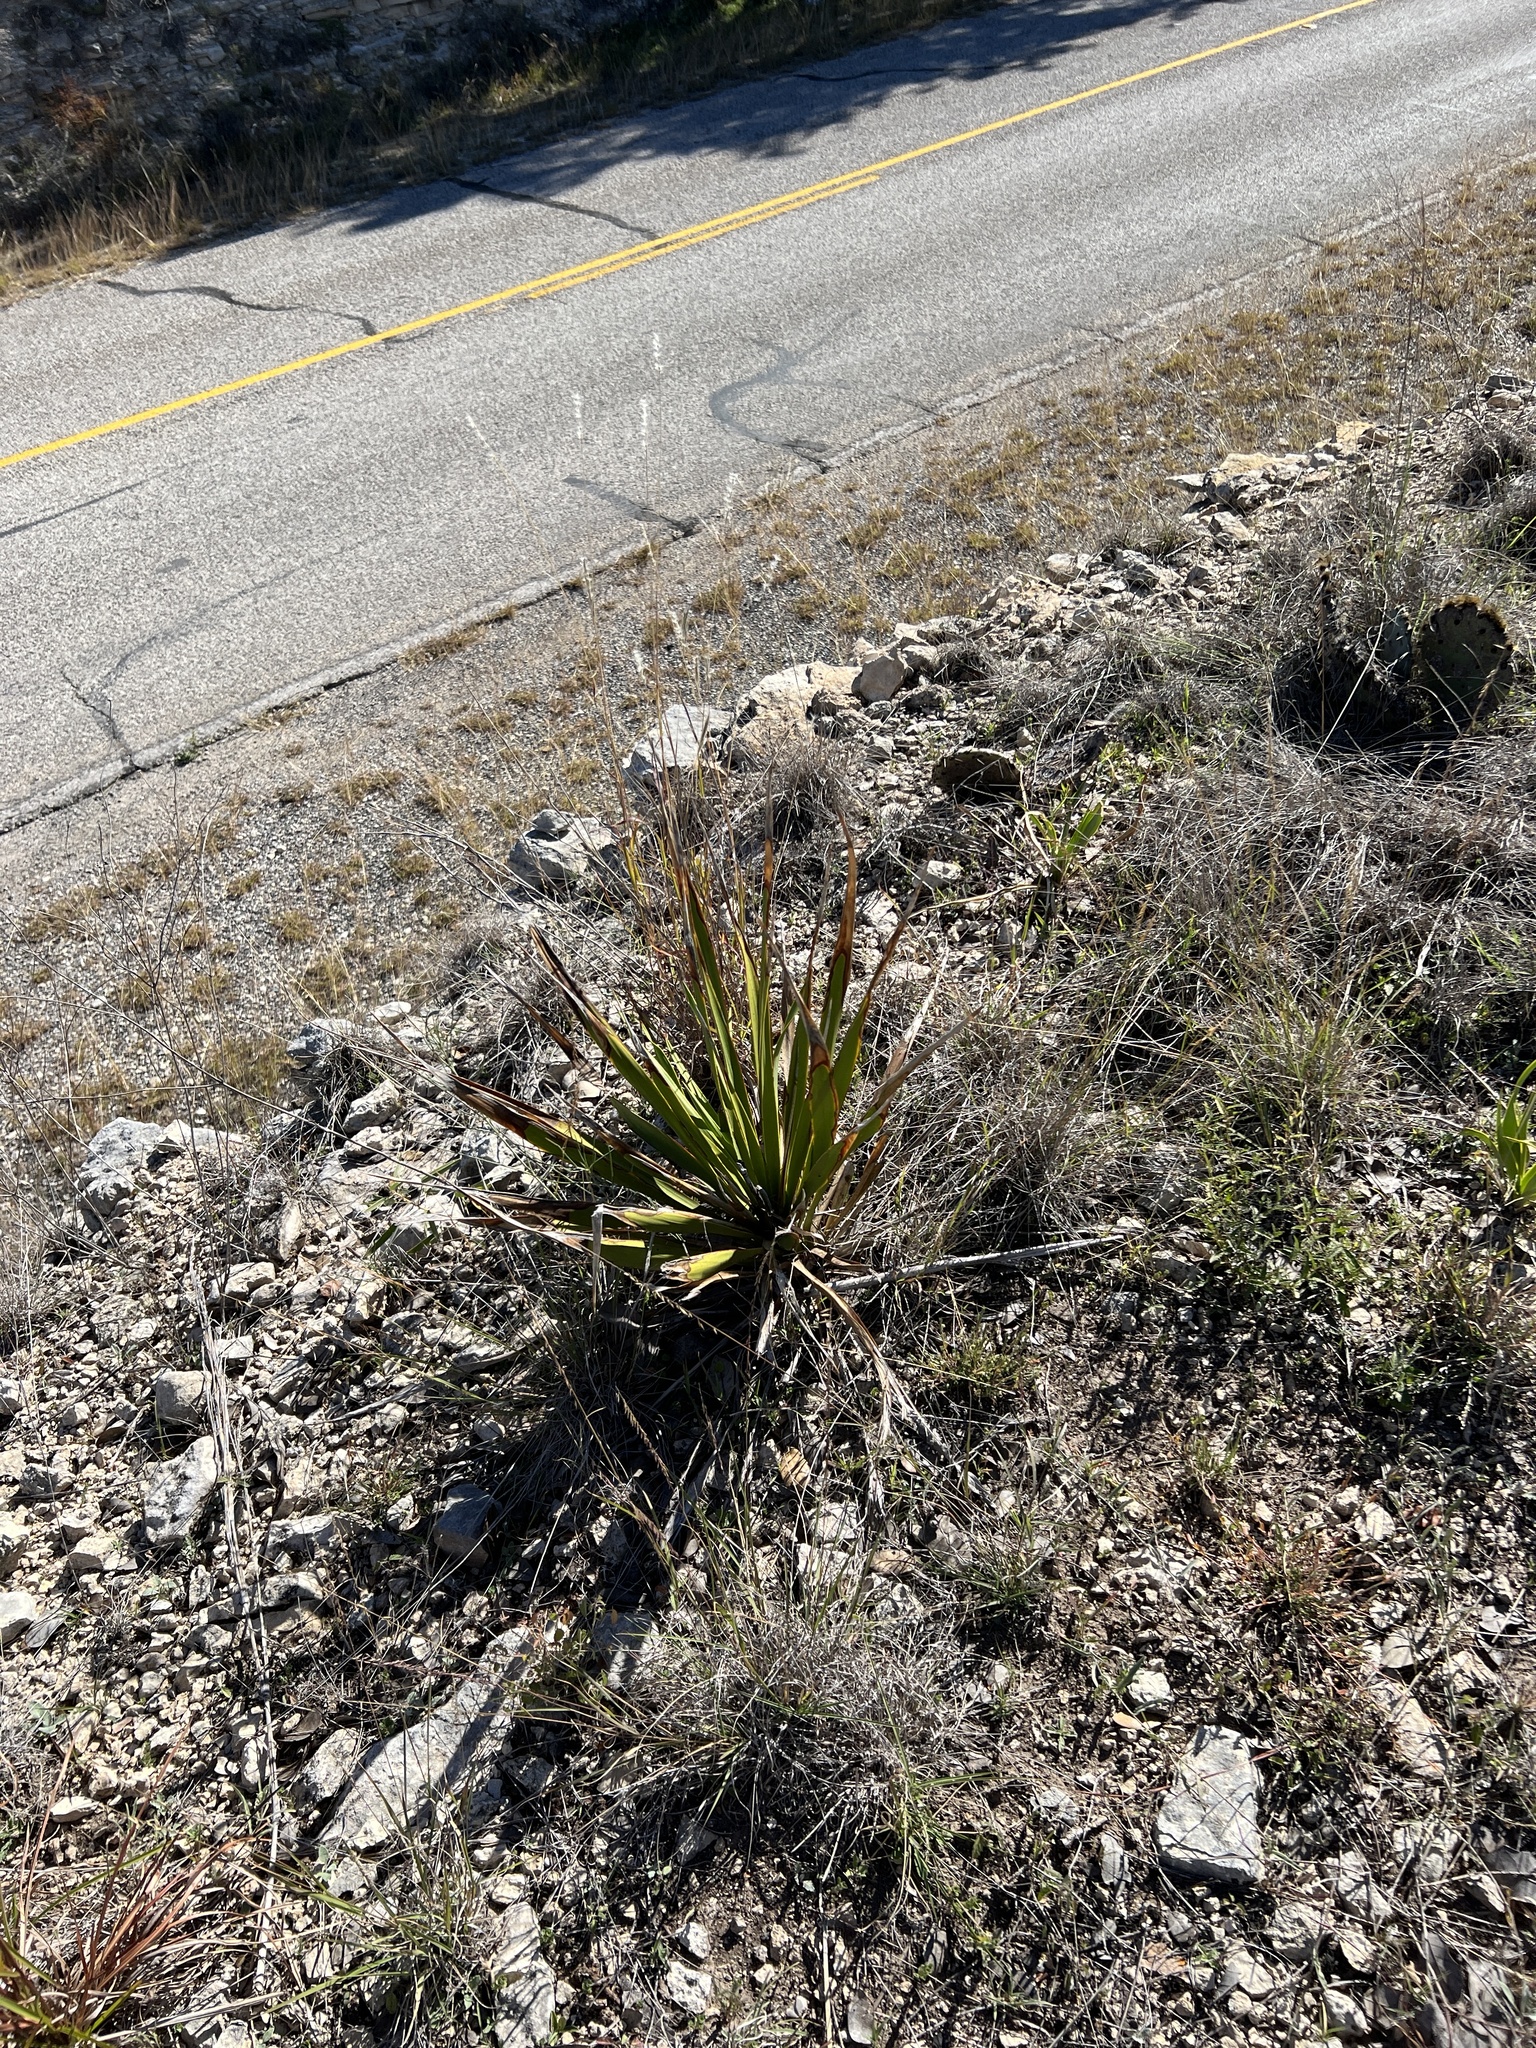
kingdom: Plantae
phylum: Tracheophyta
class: Liliopsida
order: Asparagales
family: Asparagaceae
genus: Yucca
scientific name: Yucca rupicola
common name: Twisted-leaf spanish-dagger
